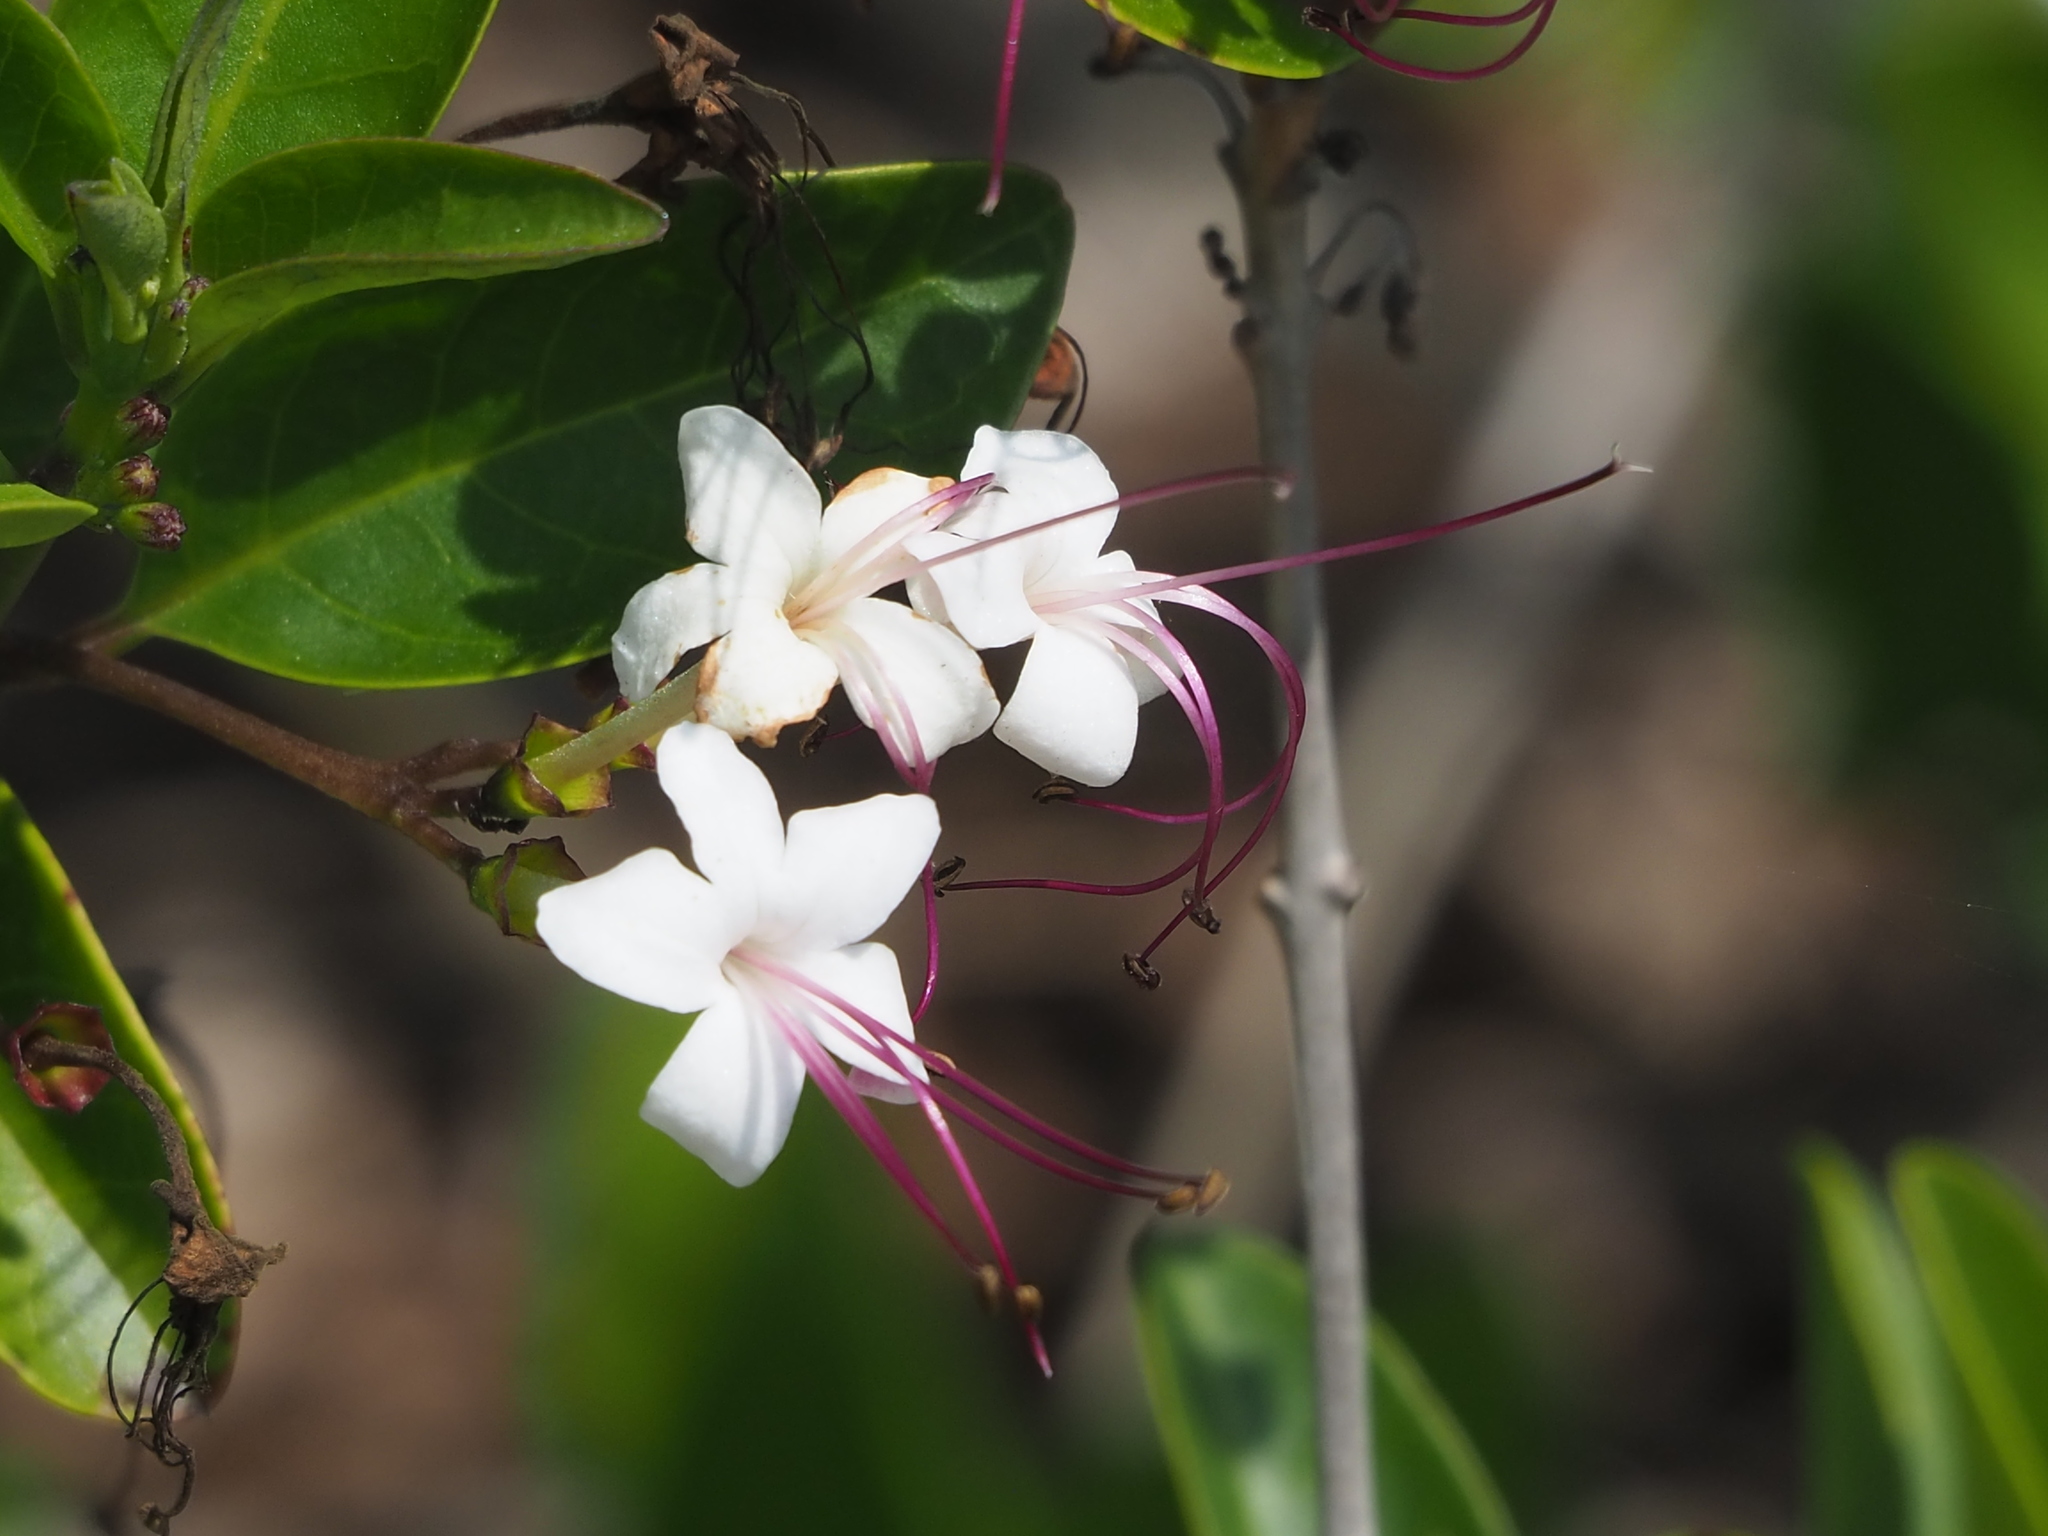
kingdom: Plantae
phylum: Tracheophyta
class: Magnoliopsida
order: Lamiales
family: Lamiaceae
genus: Volkameria
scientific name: Volkameria inermis
